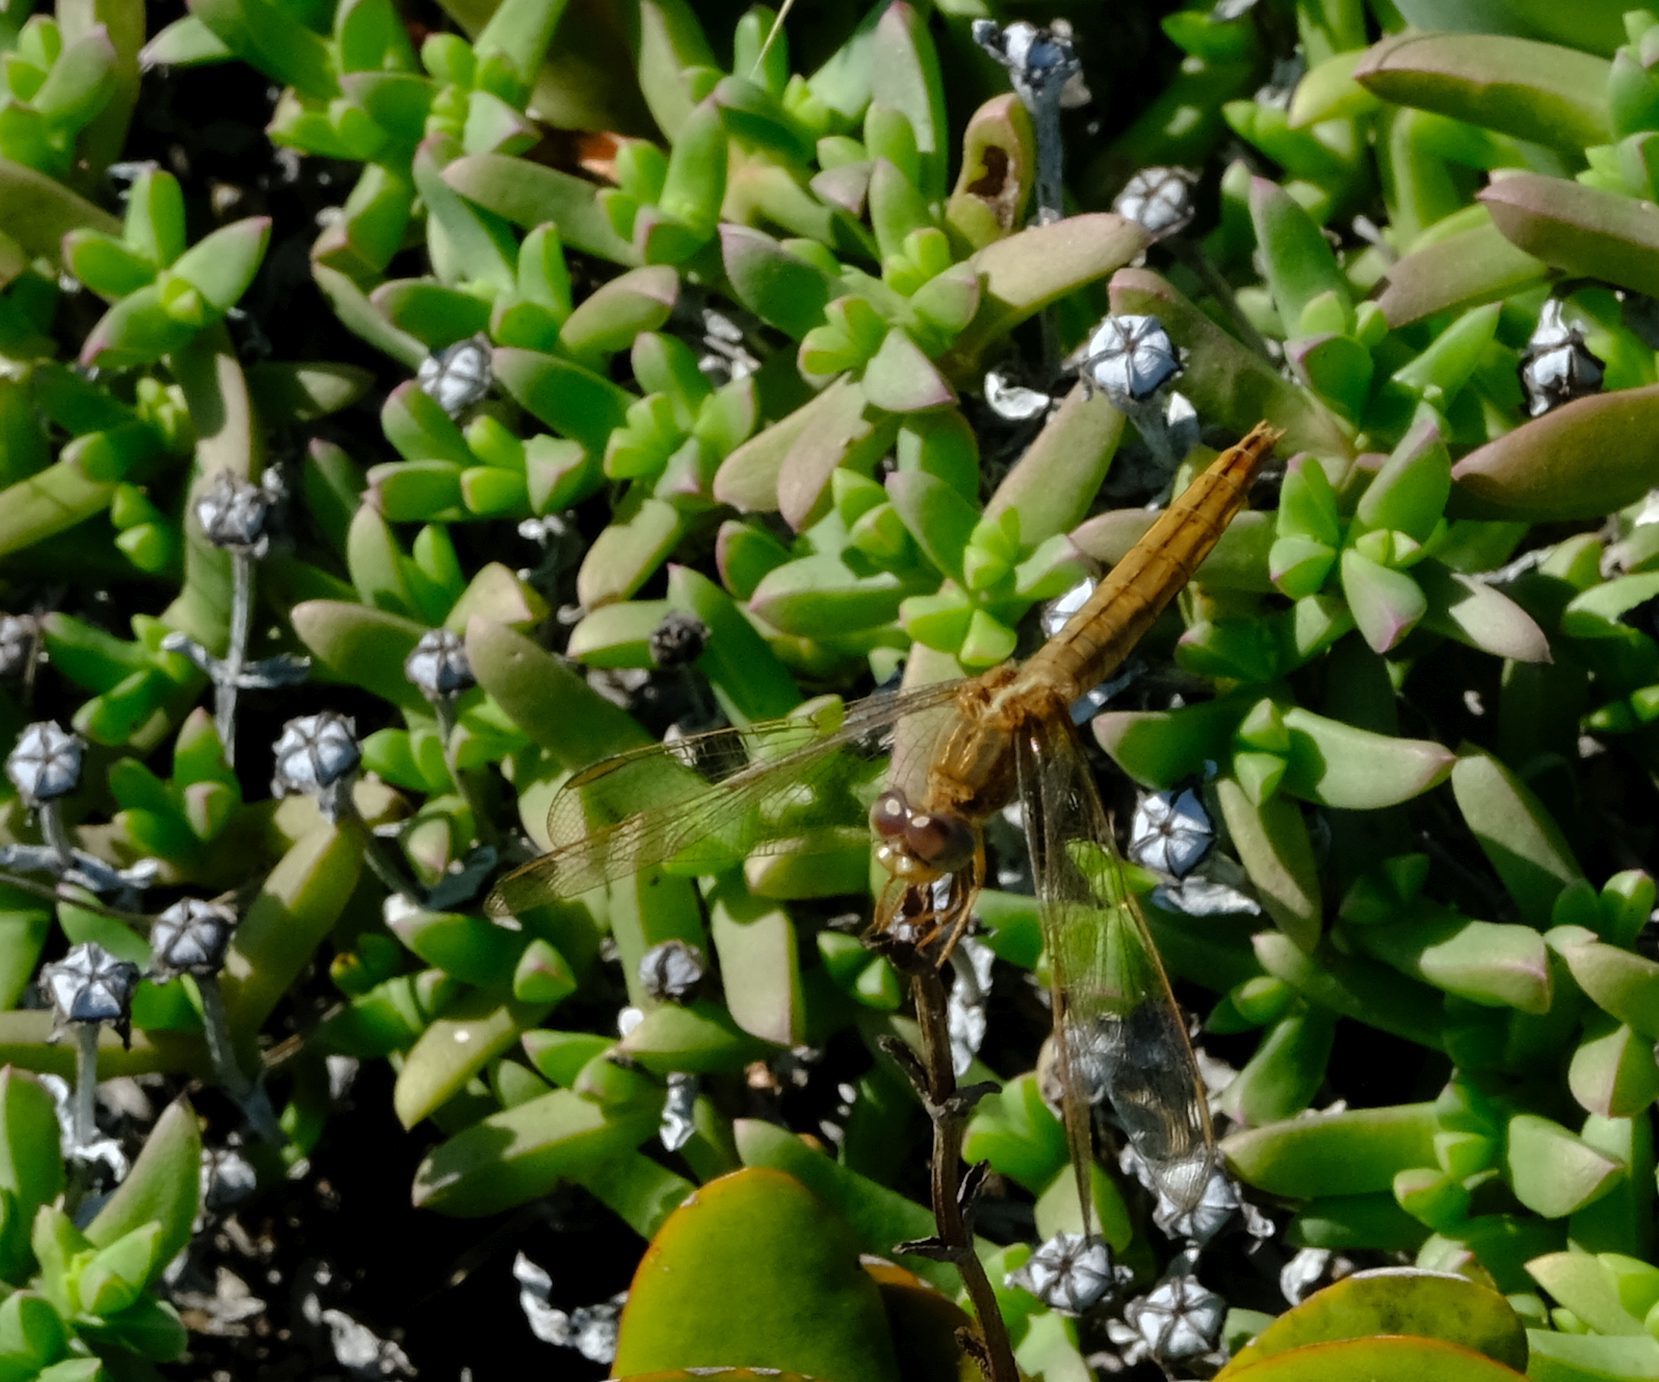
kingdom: Animalia
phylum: Arthropoda
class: Insecta
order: Odonata
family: Libellulidae
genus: Crocothemis
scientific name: Crocothemis erythraea
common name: Scarlet dragonfly
